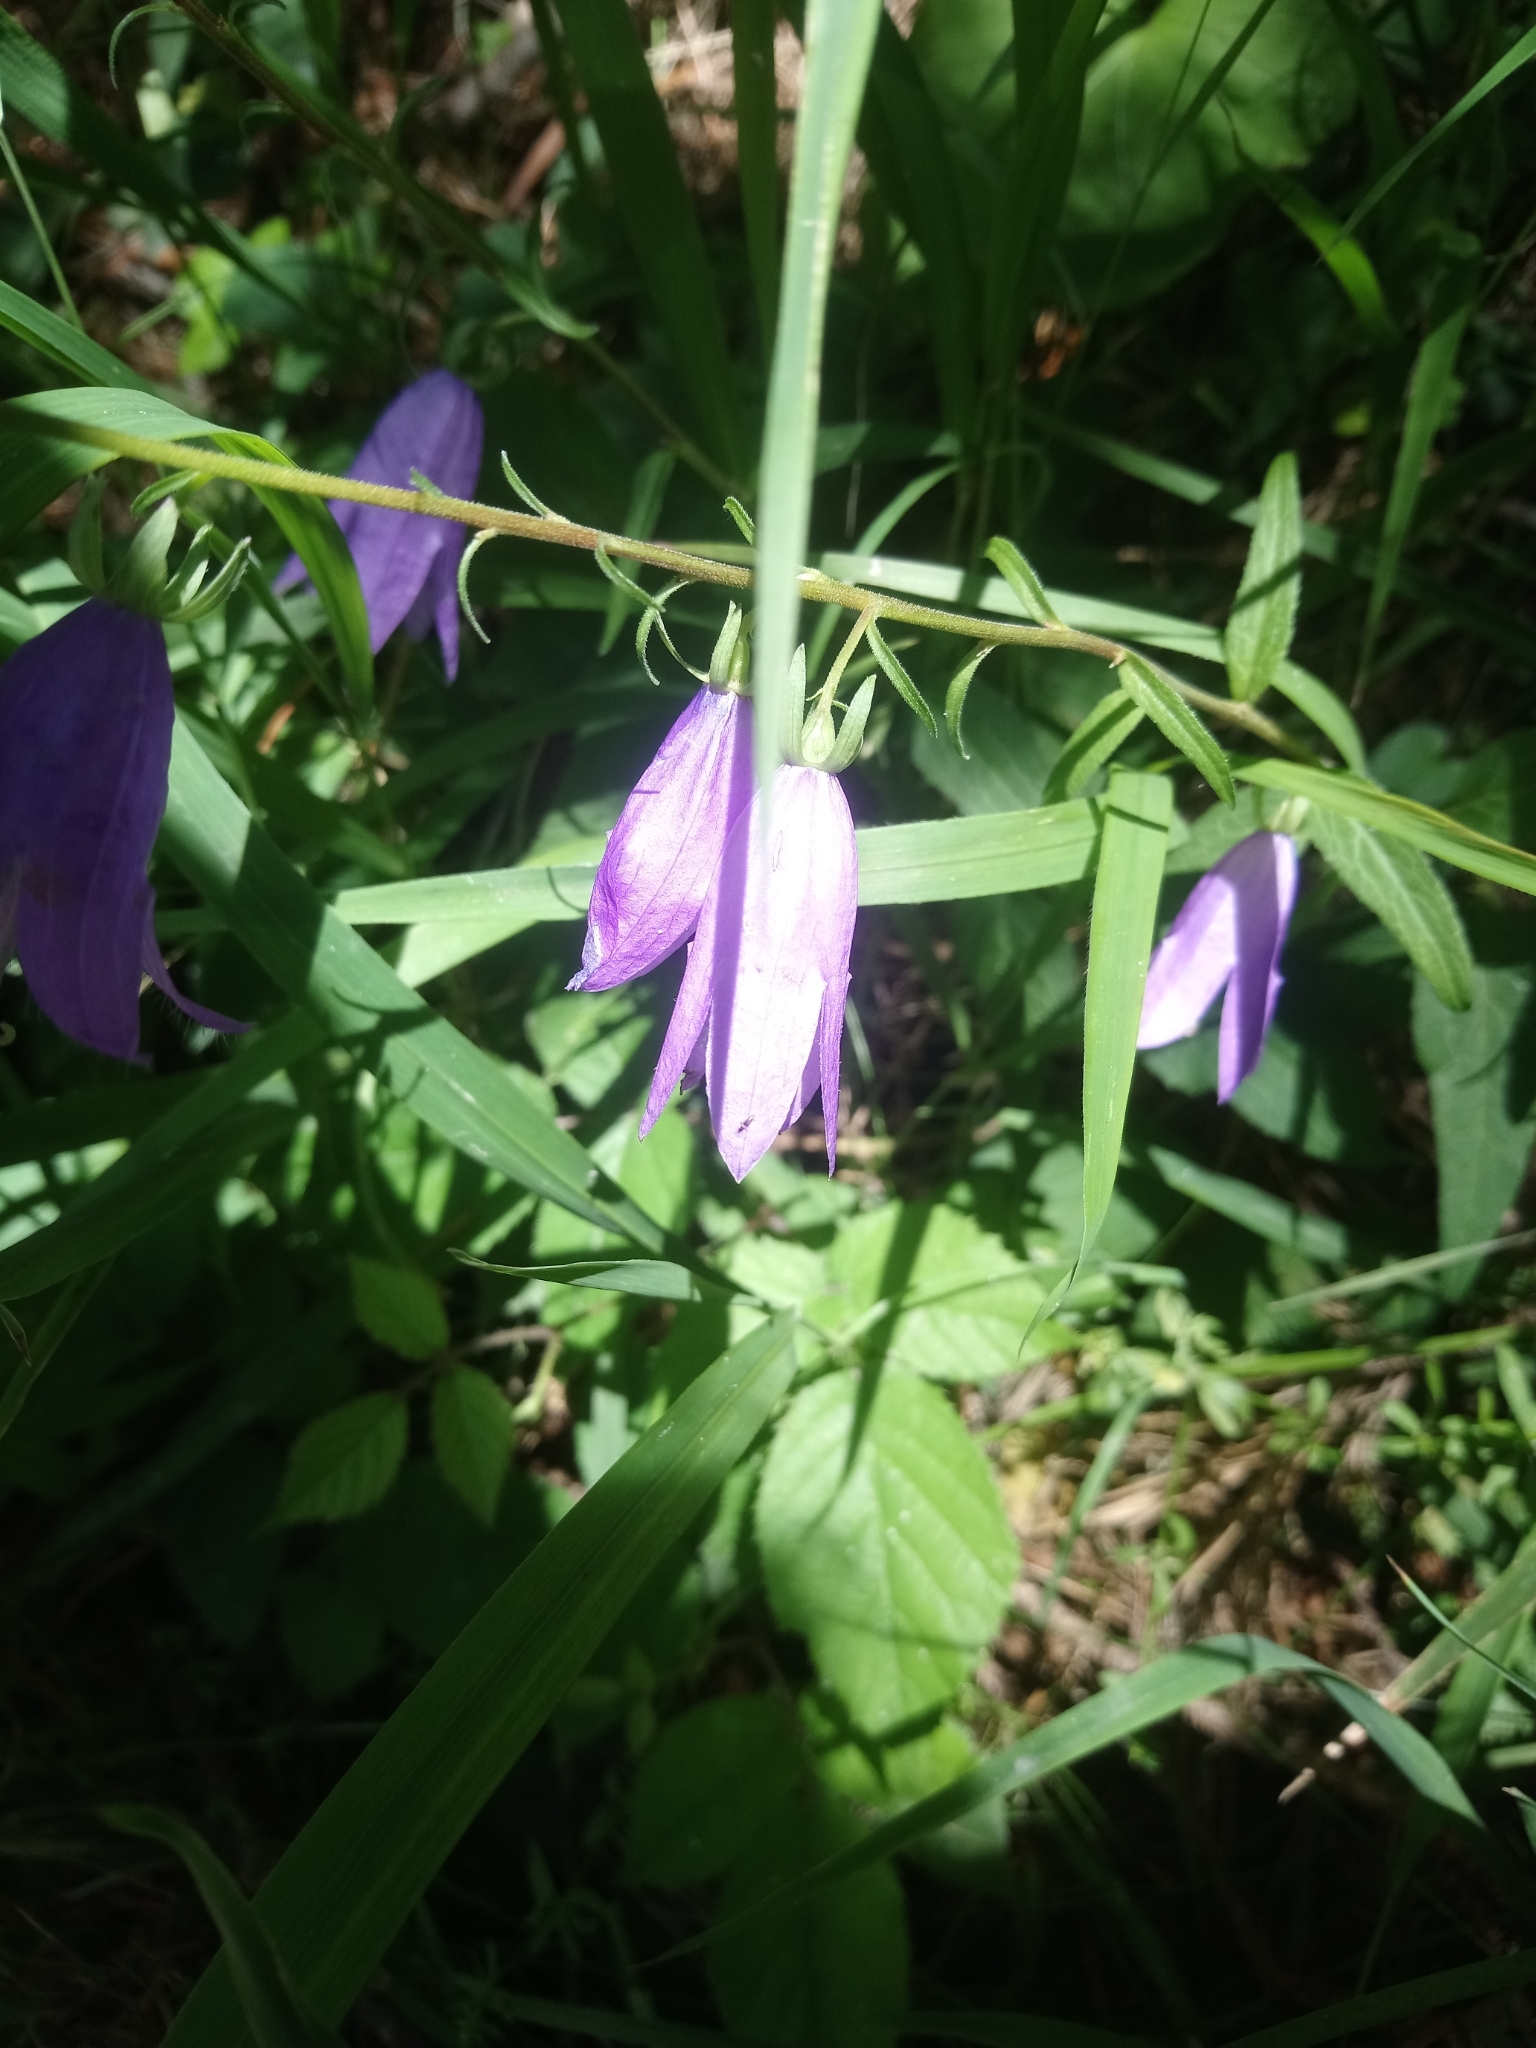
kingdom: Plantae
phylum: Tracheophyta
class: Magnoliopsida
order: Asterales
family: Campanulaceae
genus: Campanula
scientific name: Campanula rapunculoides
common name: Creeping bellflower
